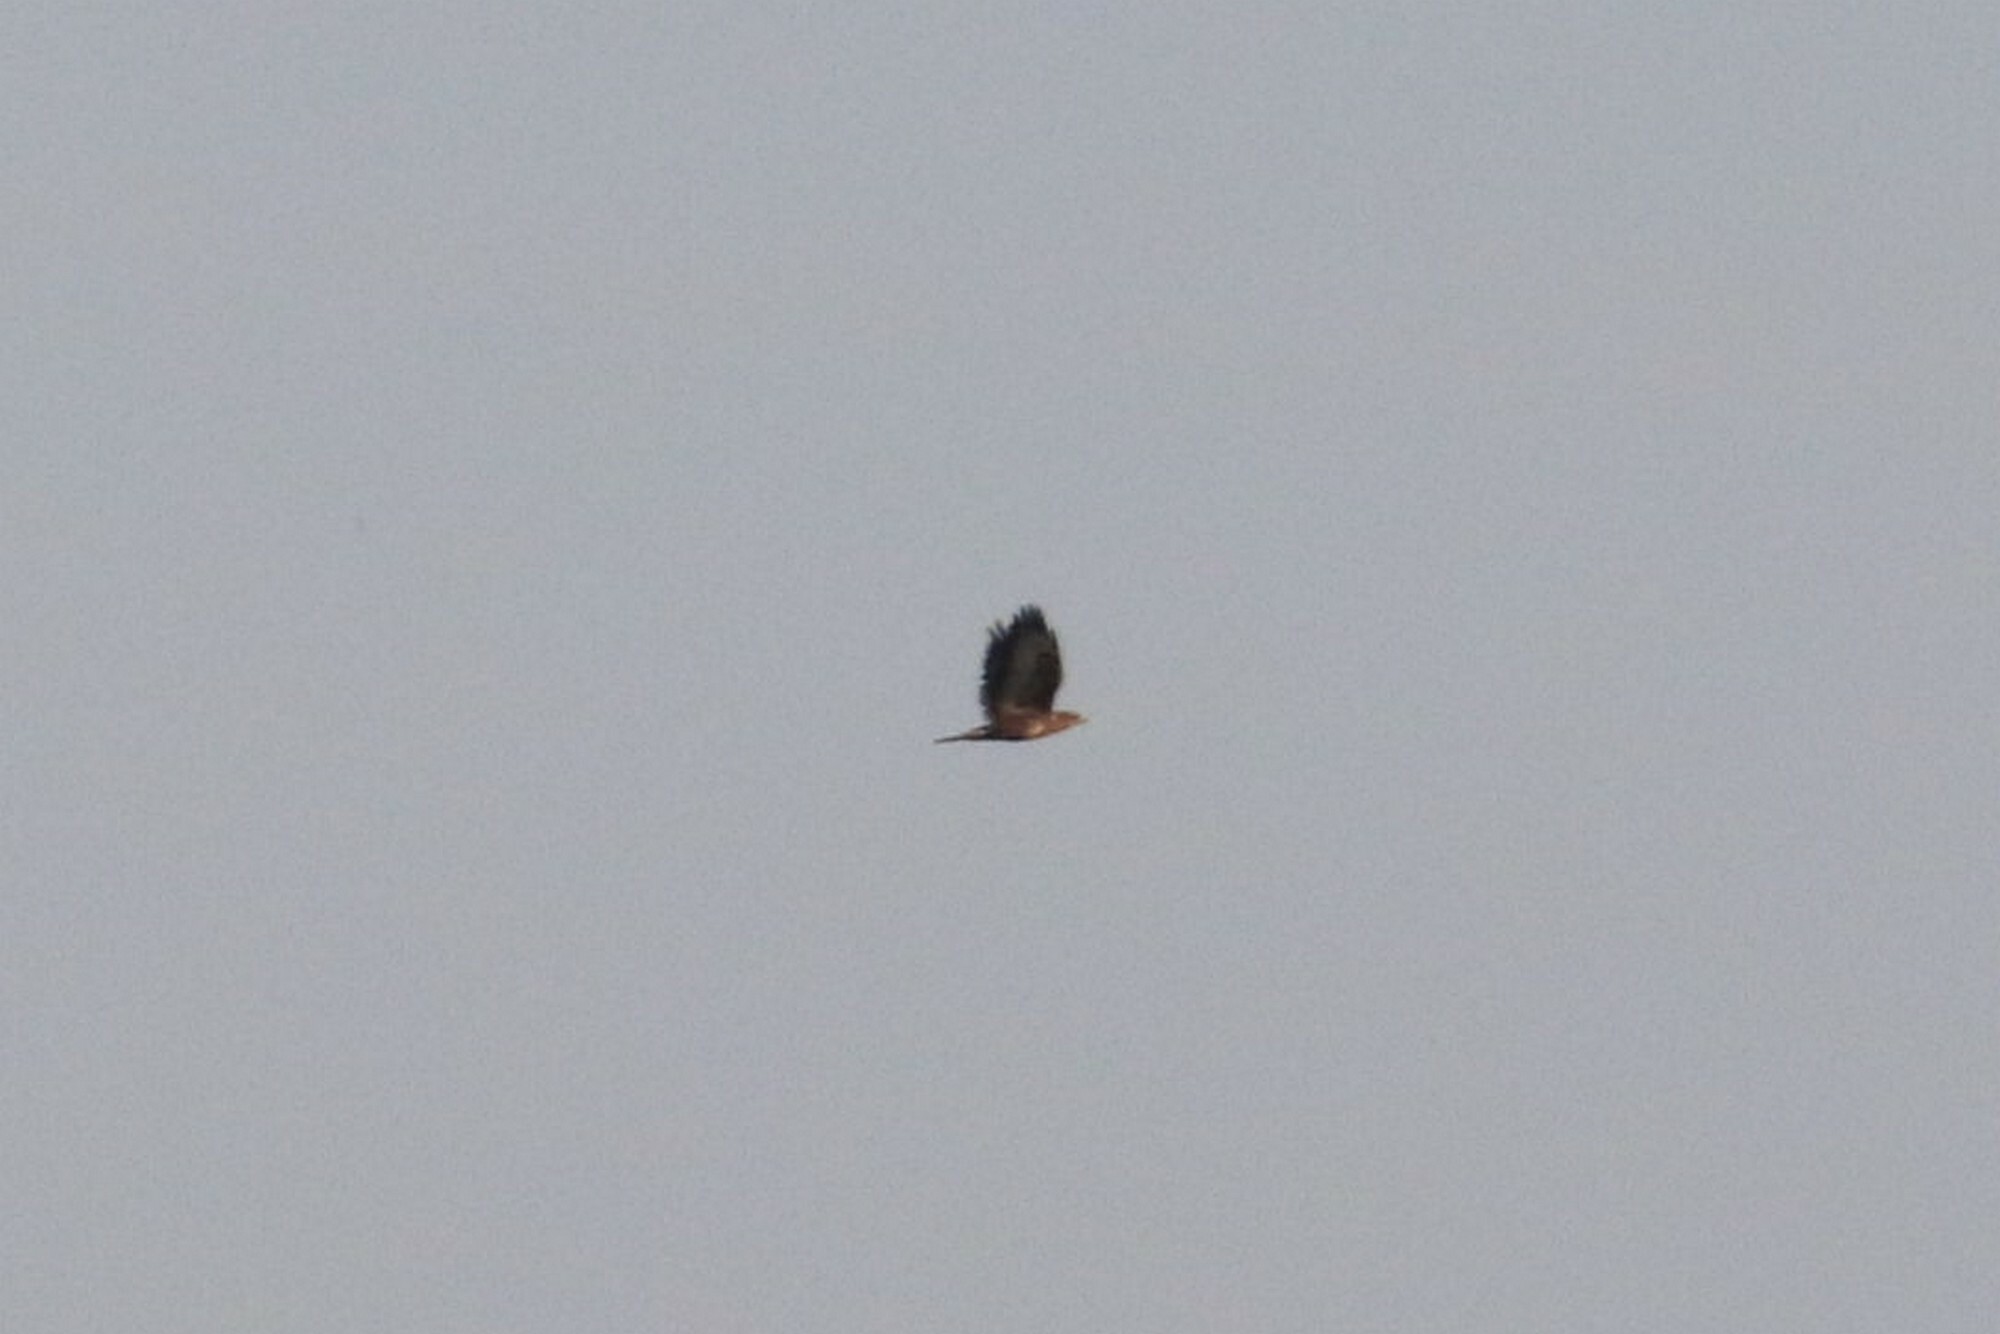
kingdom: Animalia
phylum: Chordata
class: Aves
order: Accipitriformes
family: Accipitridae
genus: Buteo
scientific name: Buteo buteo
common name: Common buzzard
